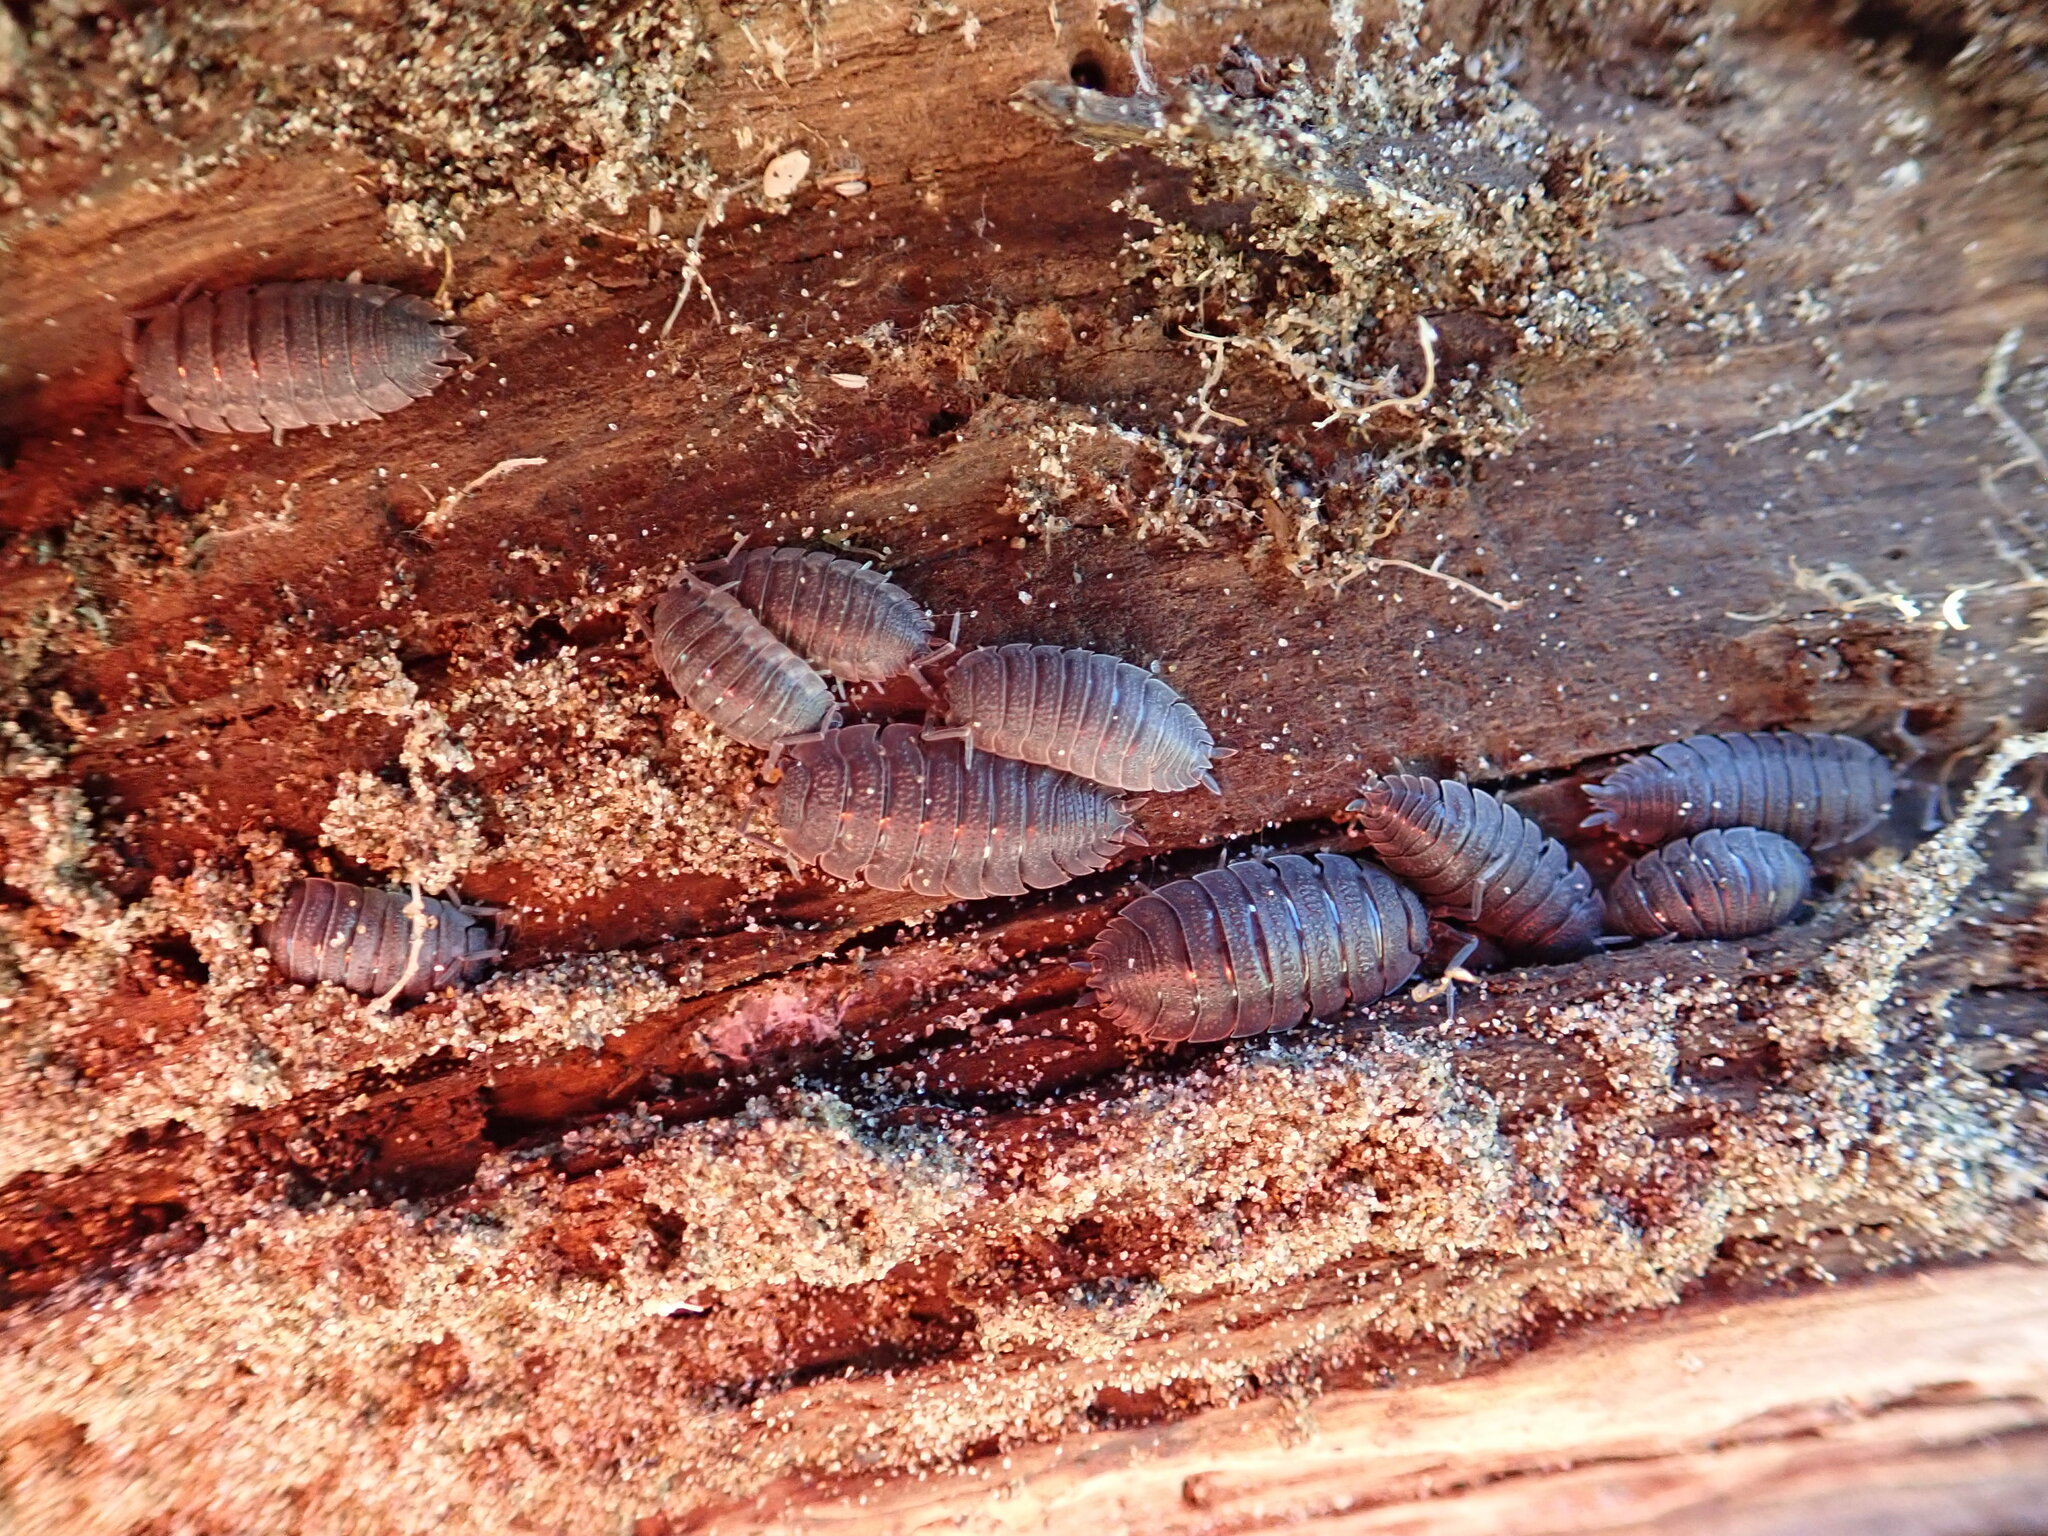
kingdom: Animalia
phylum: Arthropoda
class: Malacostraca
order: Isopoda
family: Porcellionidae
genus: Porcellio
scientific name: Porcellio scaber
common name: Common rough woodlouse
